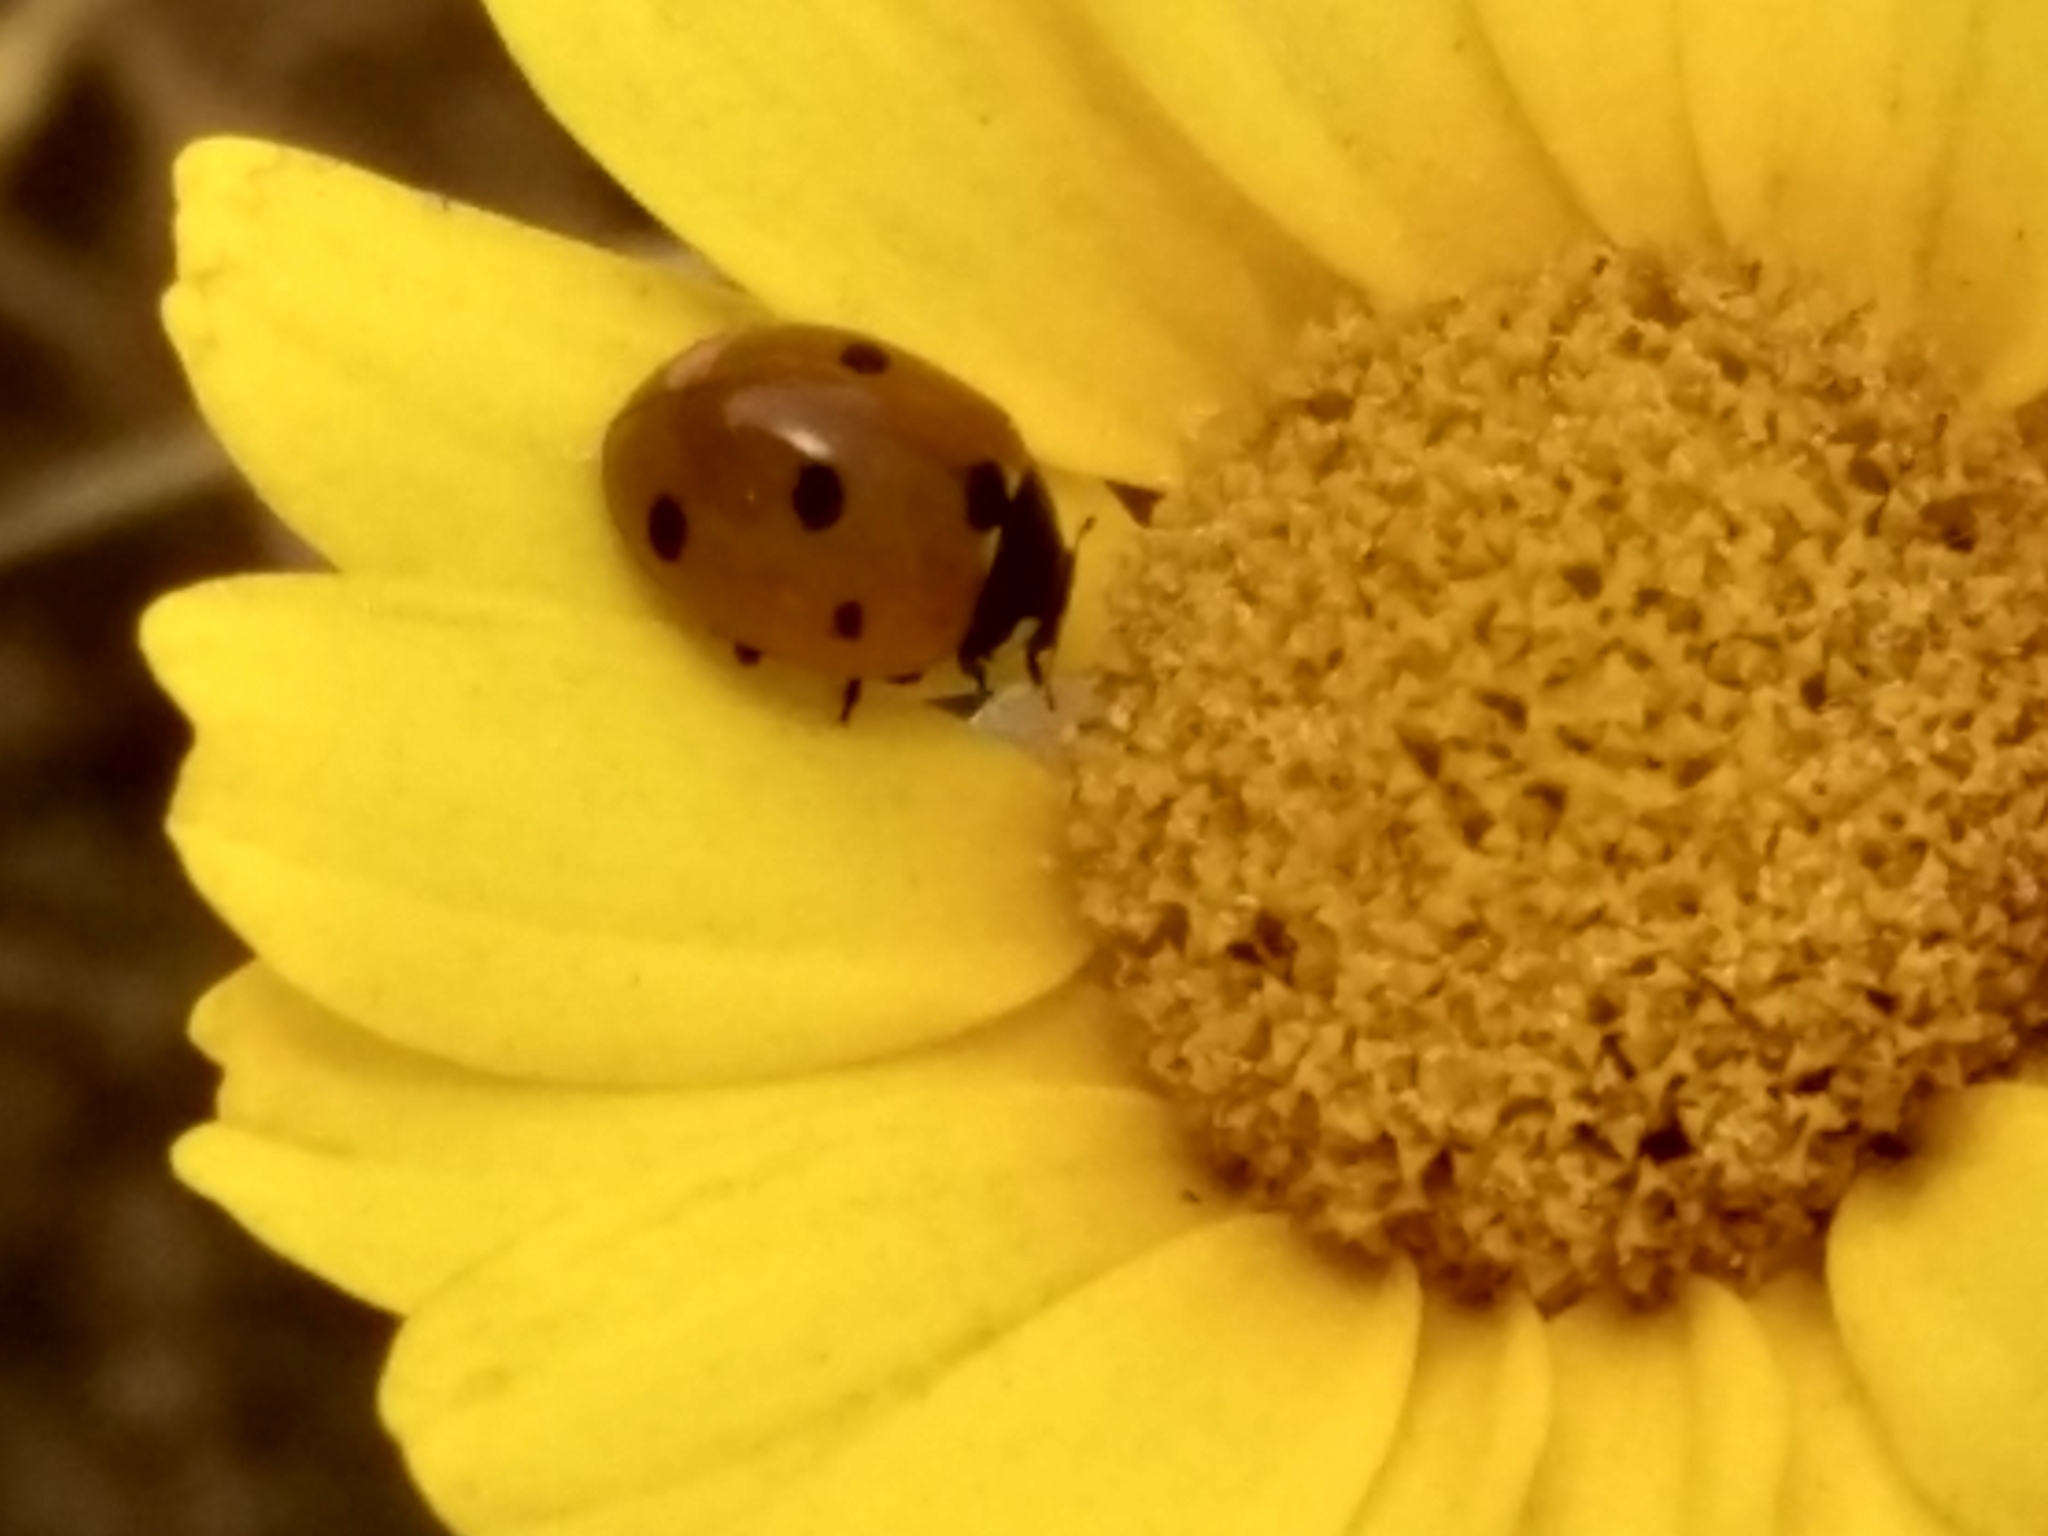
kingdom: Animalia
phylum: Arthropoda
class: Insecta
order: Coleoptera
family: Coccinellidae
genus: Coccinella
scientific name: Coccinella septempunctata
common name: Sevenspotted lady beetle
